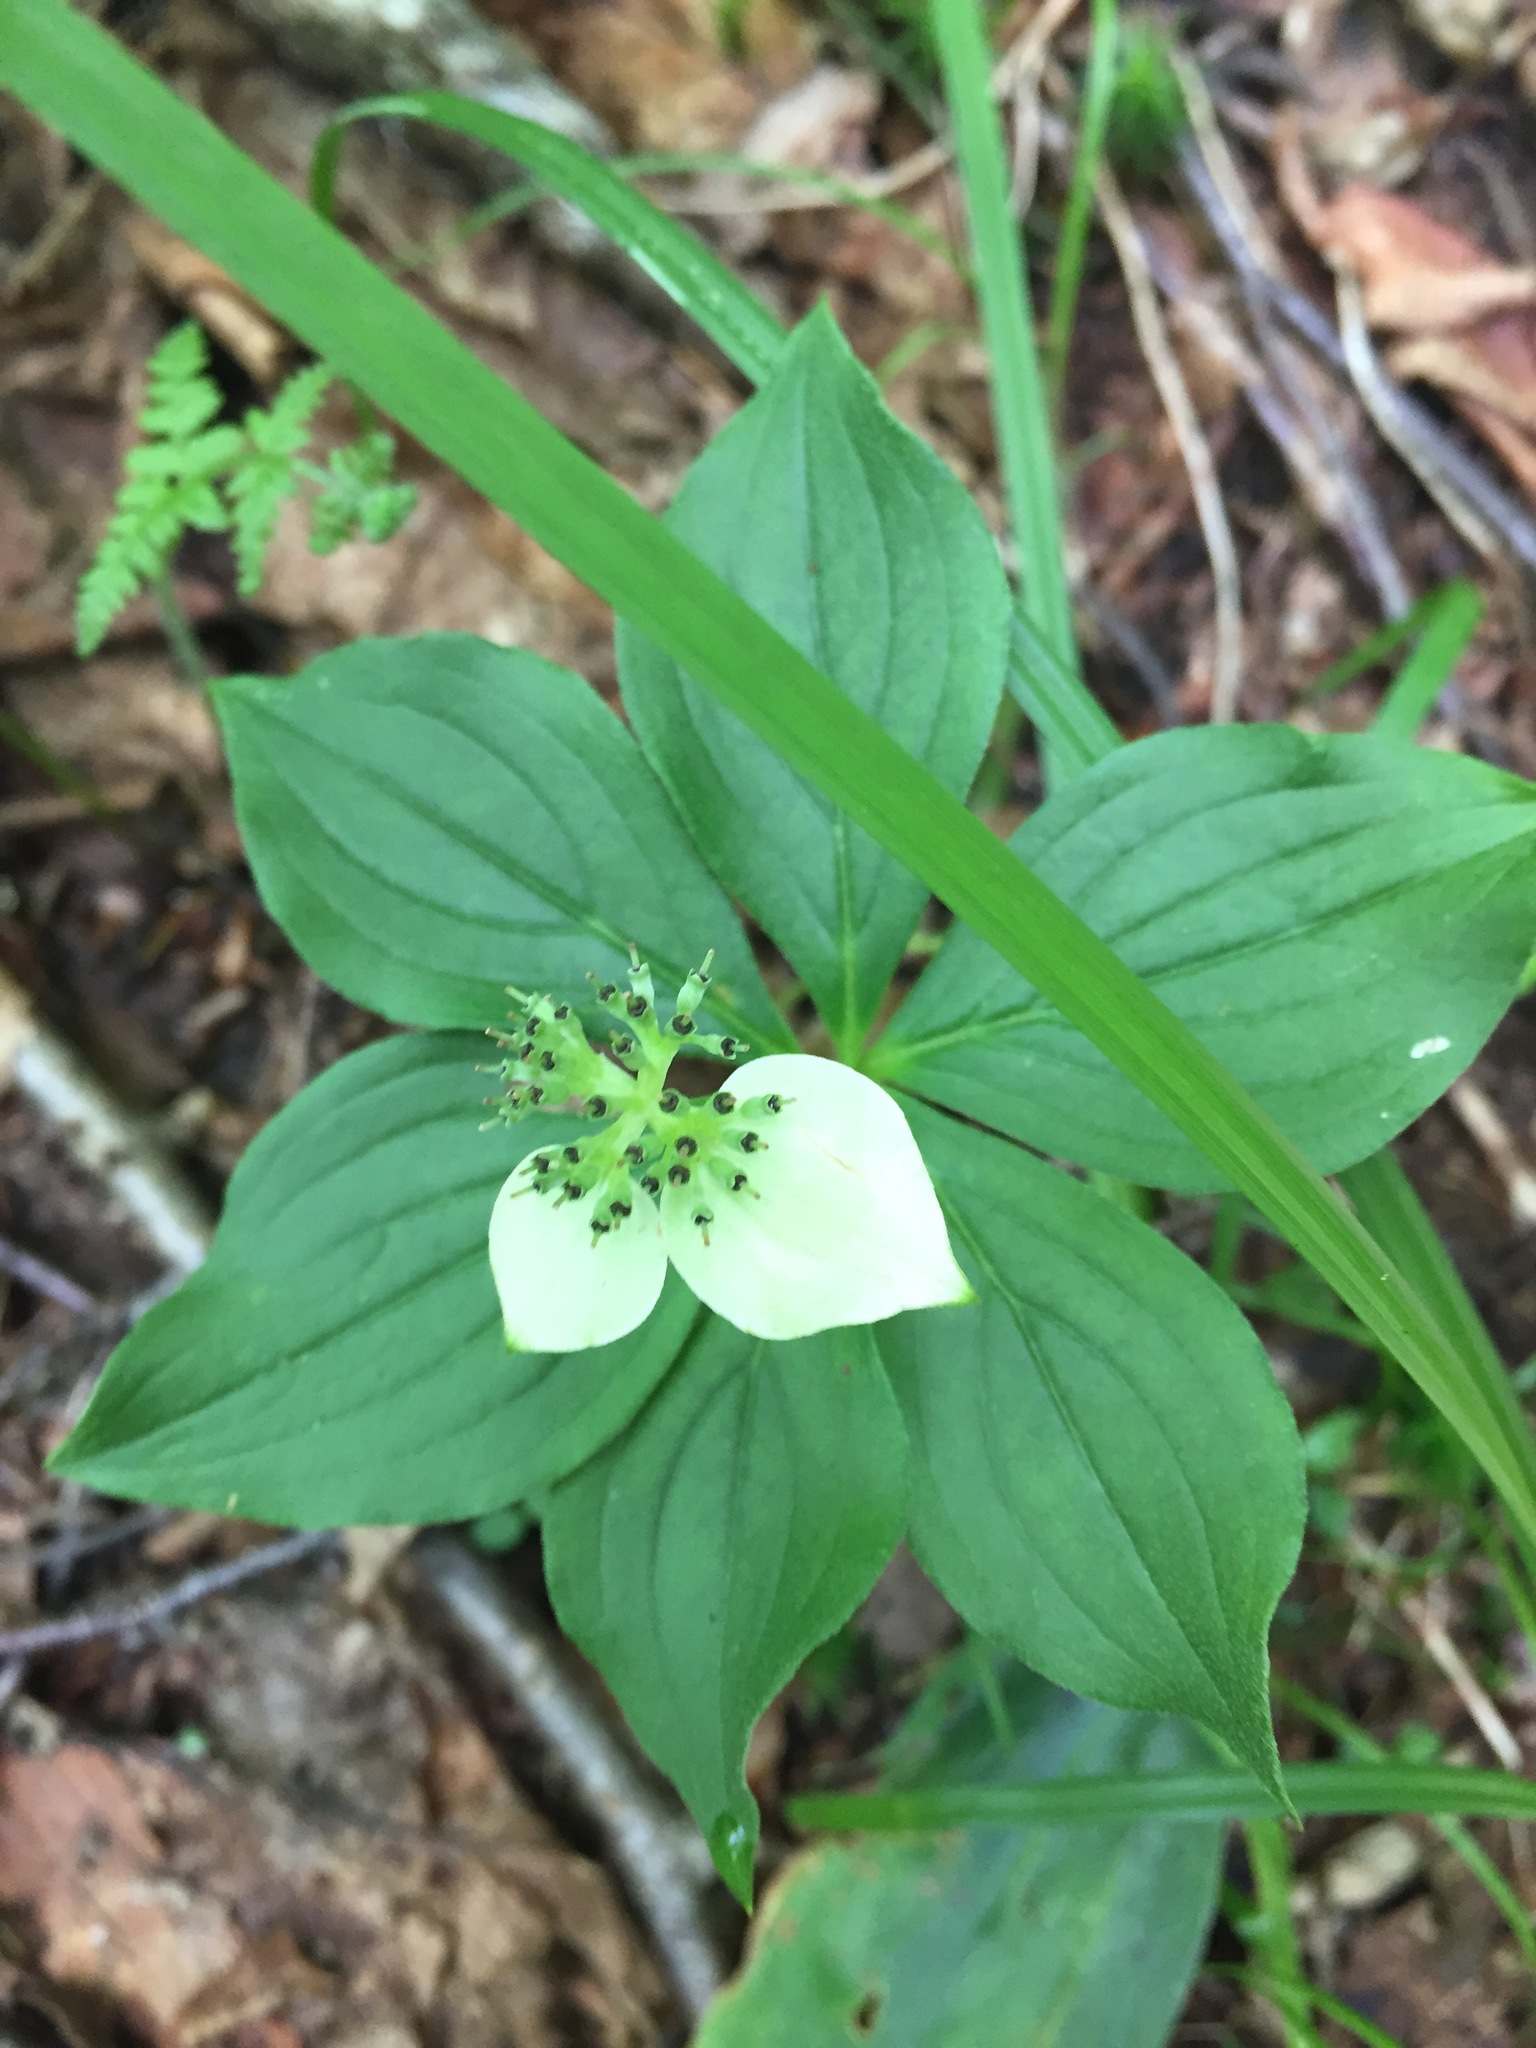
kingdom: Plantae
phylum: Tracheophyta
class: Magnoliopsida
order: Cornales
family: Cornaceae
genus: Cornus
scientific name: Cornus canadensis
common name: Creeping dogwood
